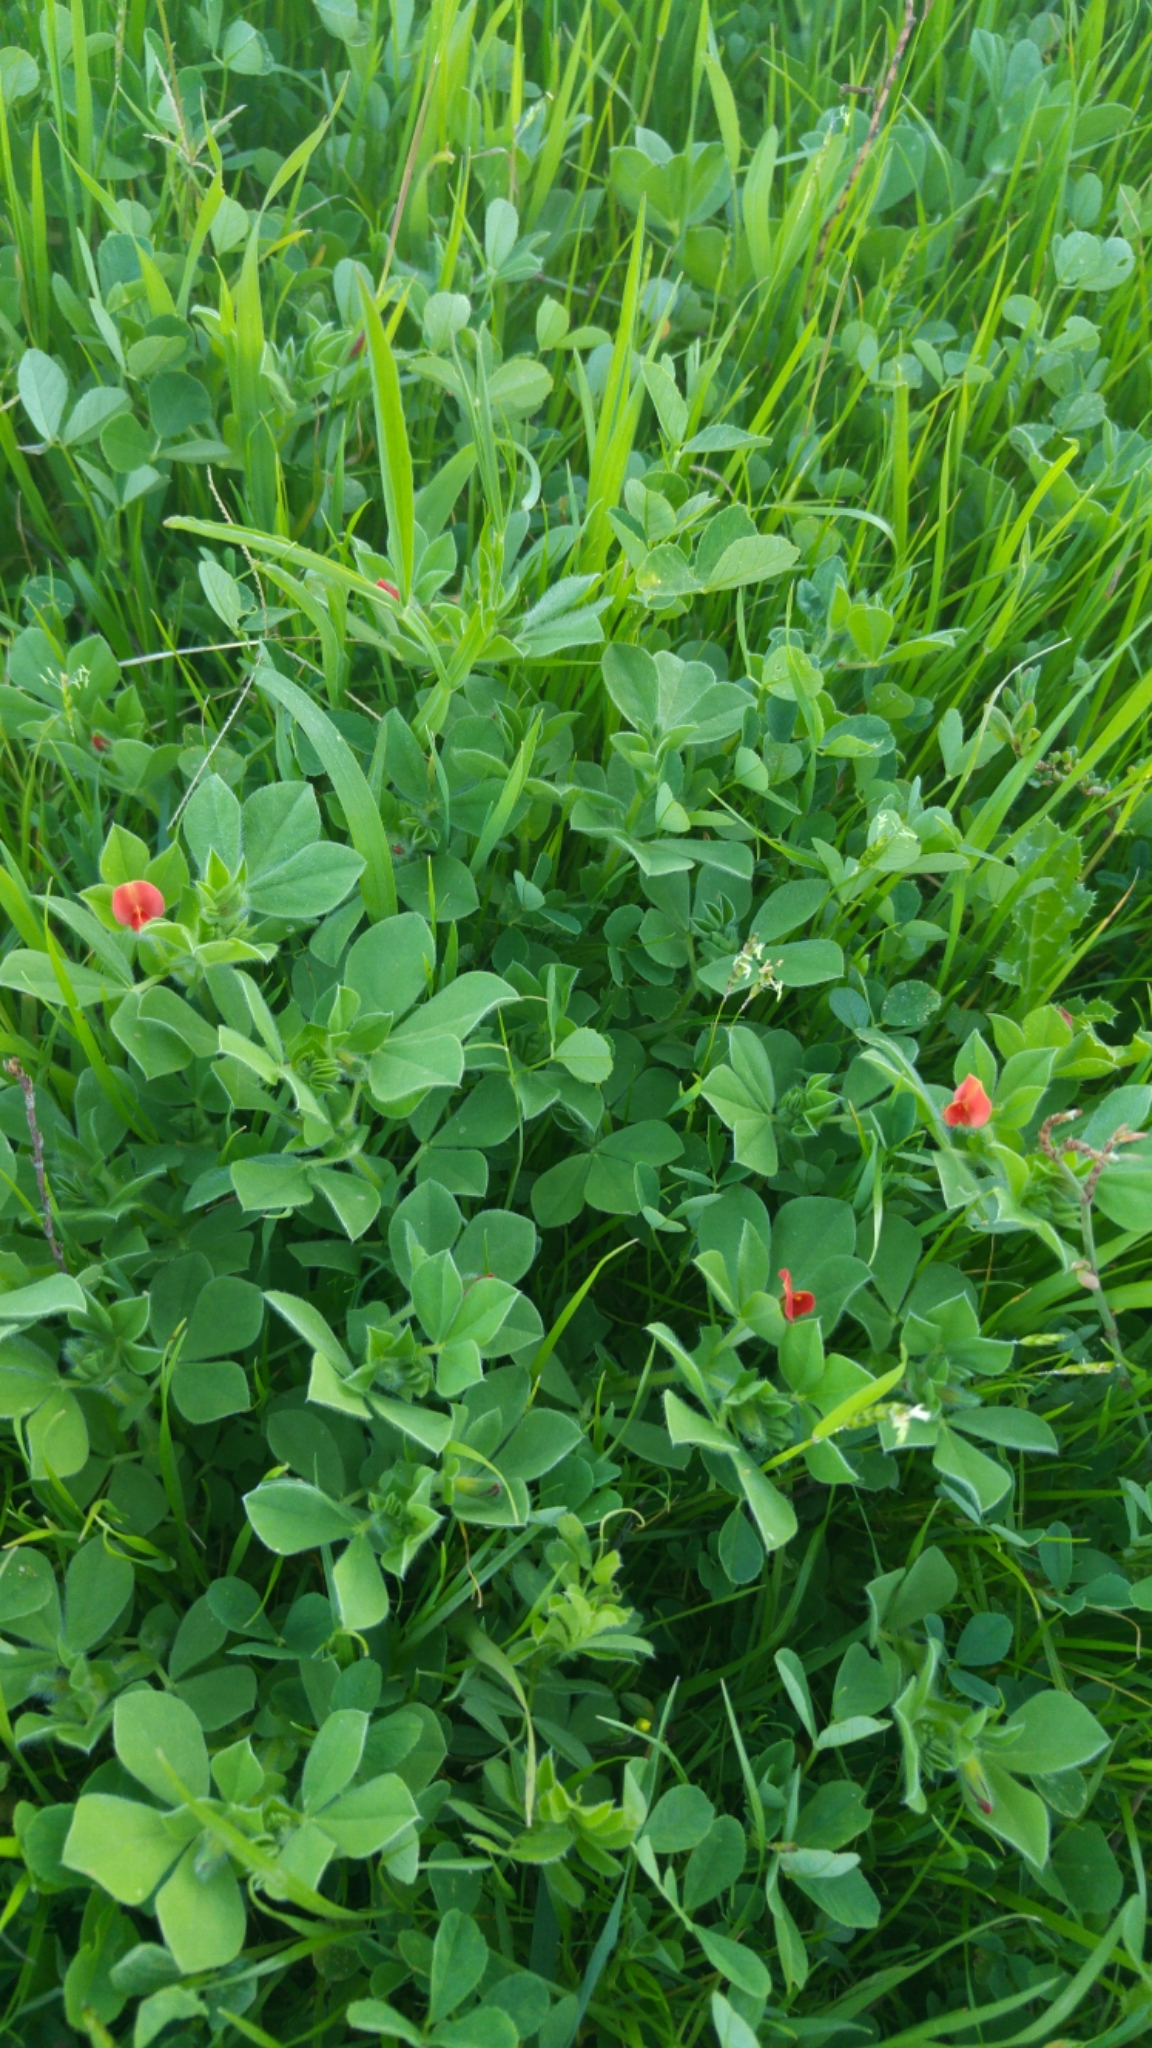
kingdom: Plantae
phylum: Tracheophyta
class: Magnoliopsida
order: Fabales
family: Fabaceae
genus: Lotus
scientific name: Lotus tetragonolobus
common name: Asparagus-pea
